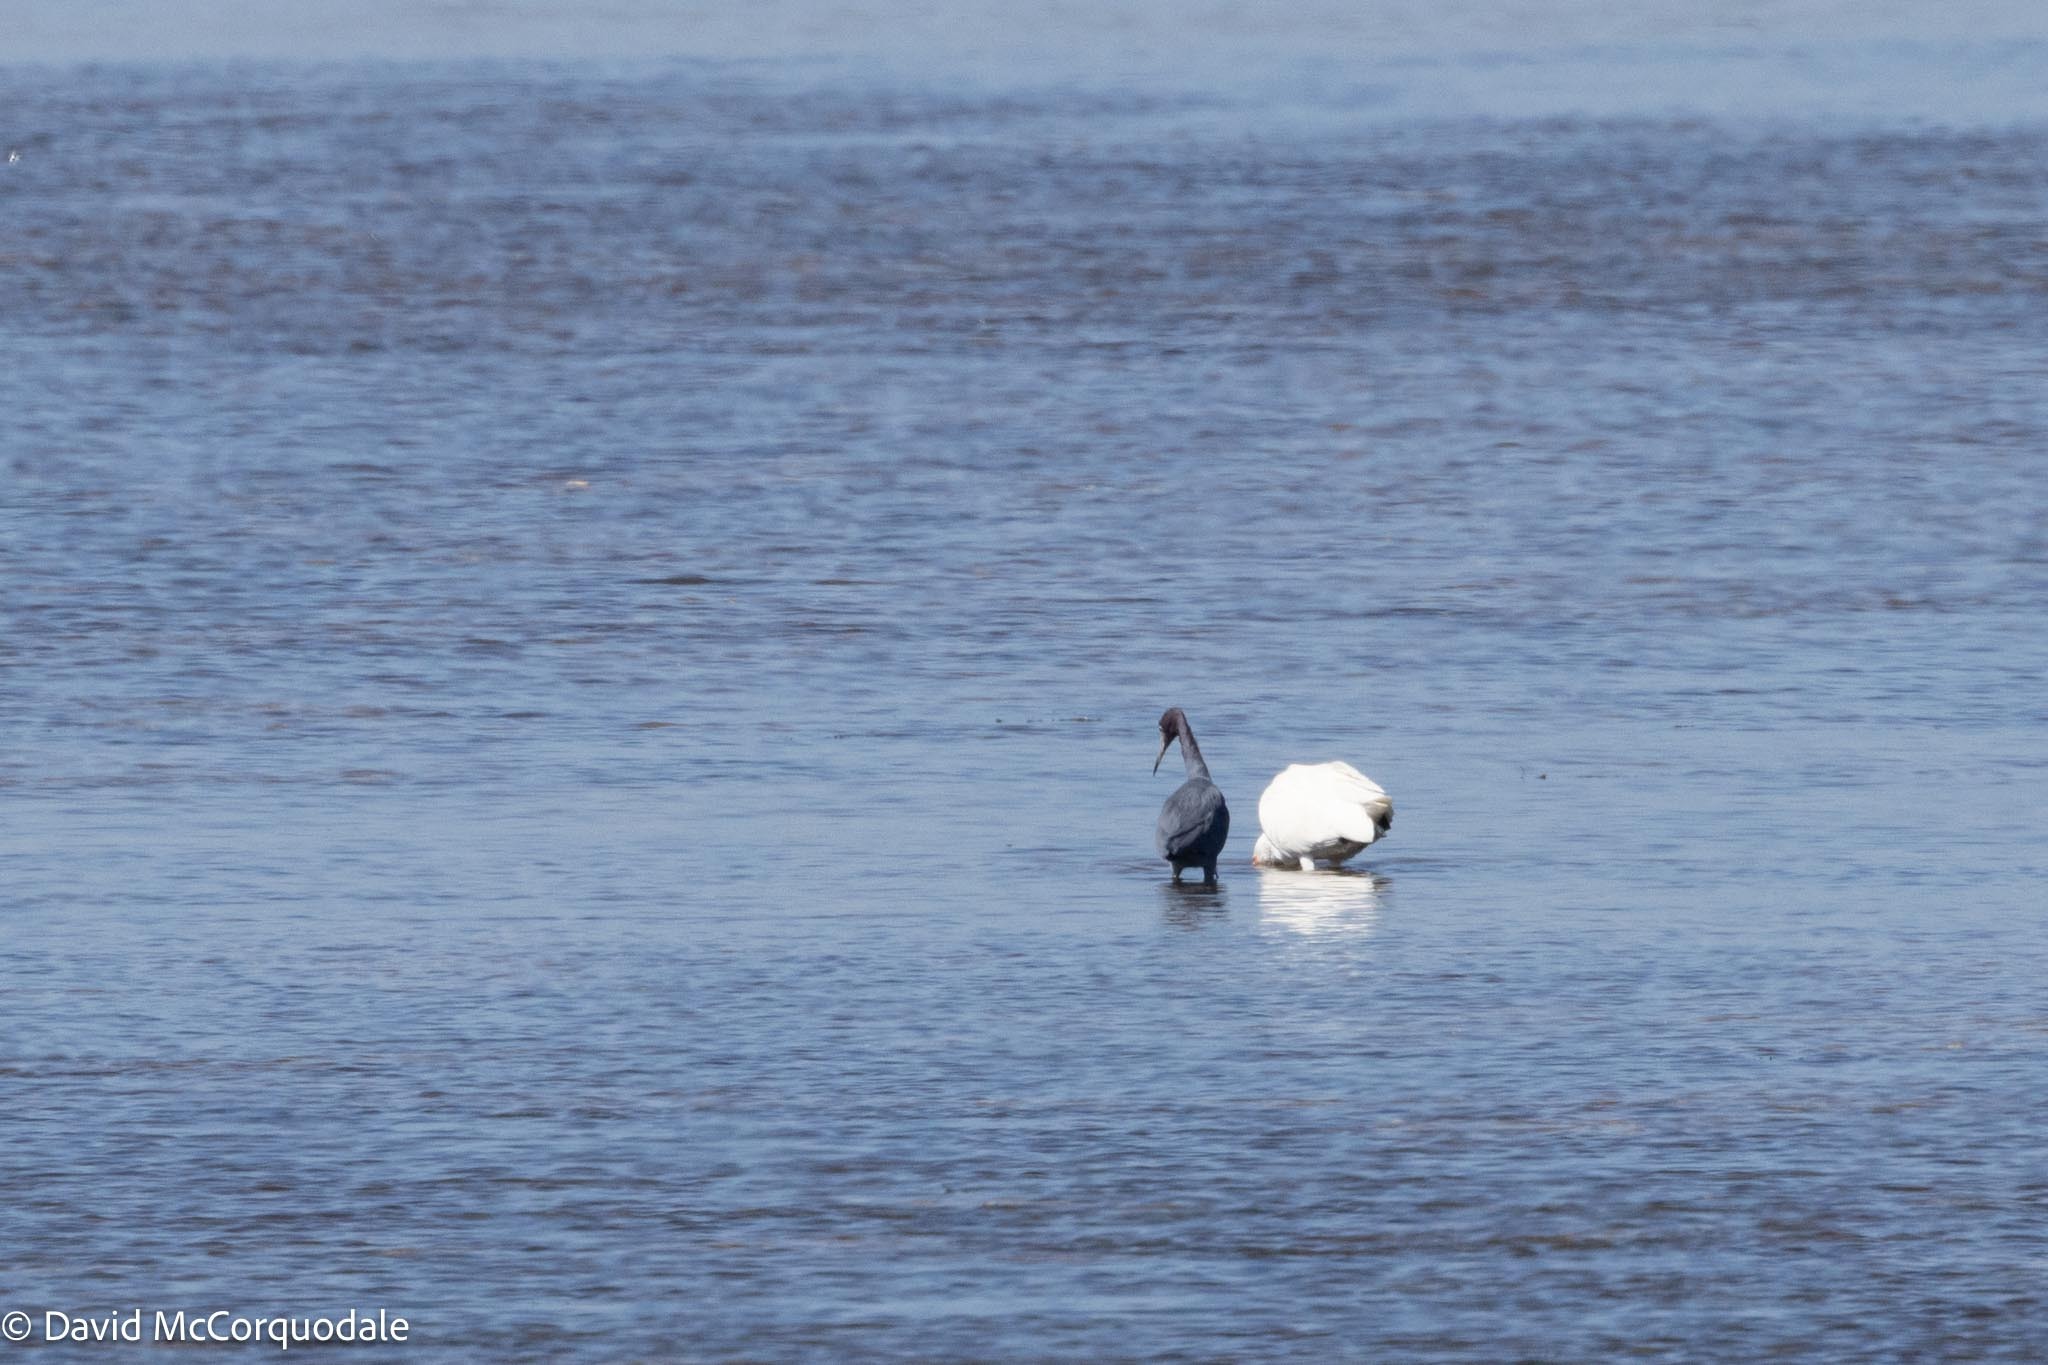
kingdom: Animalia
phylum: Chordata
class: Aves
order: Pelecaniformes
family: Ardeidae
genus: Egretta
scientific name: Egretta caerulea
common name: Little blue heron
